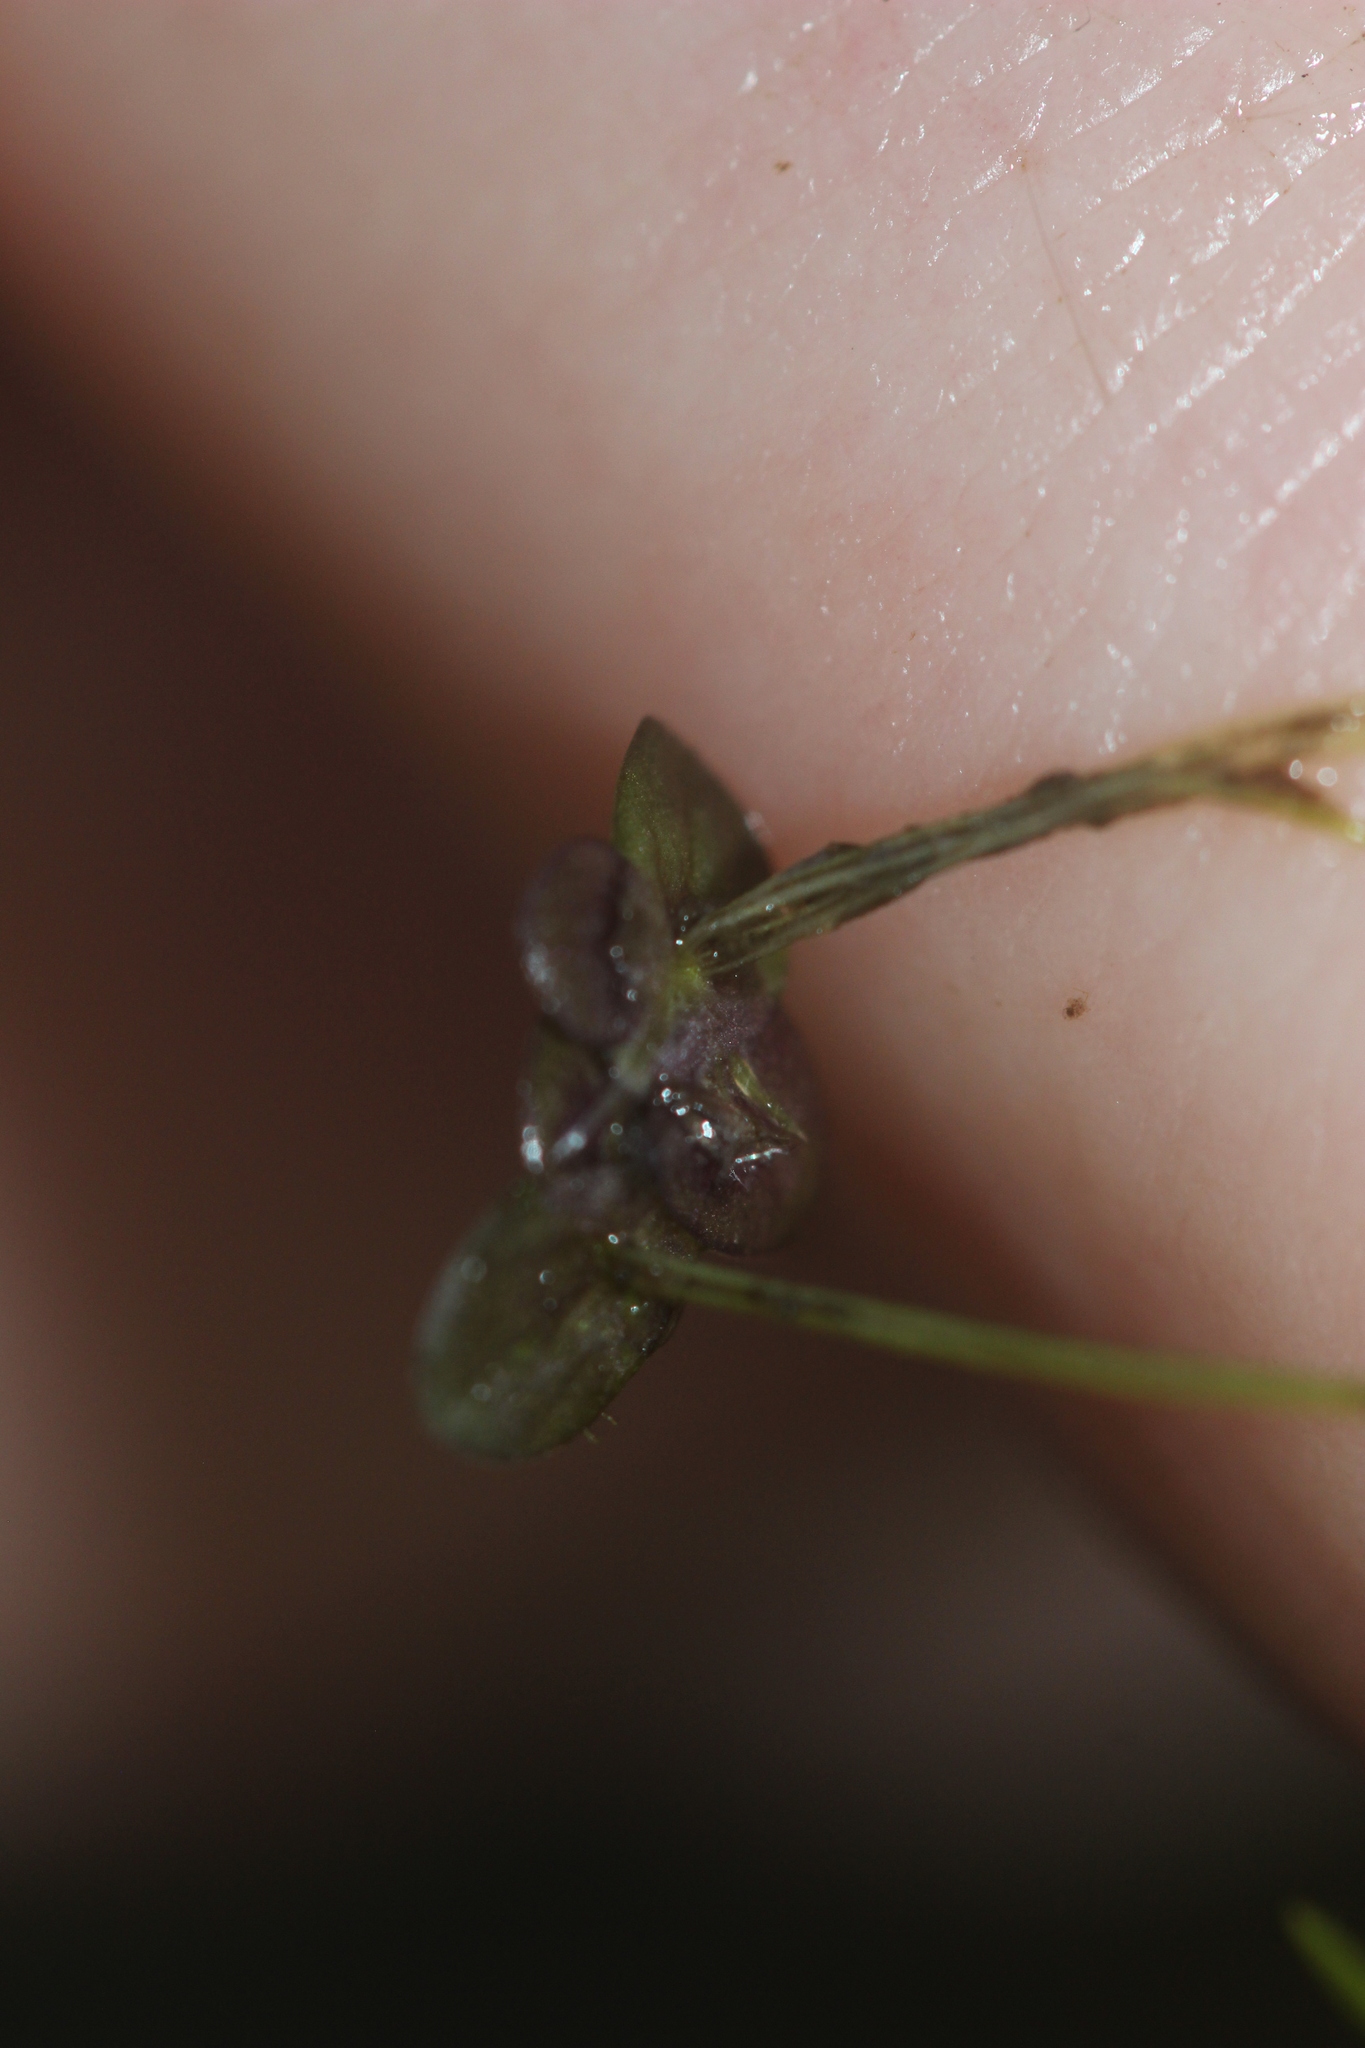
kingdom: Plantae
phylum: Tracheophyta
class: Liliopsida
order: Alismatales
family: Araceae
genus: Spirodela
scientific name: Spirodela punctata
